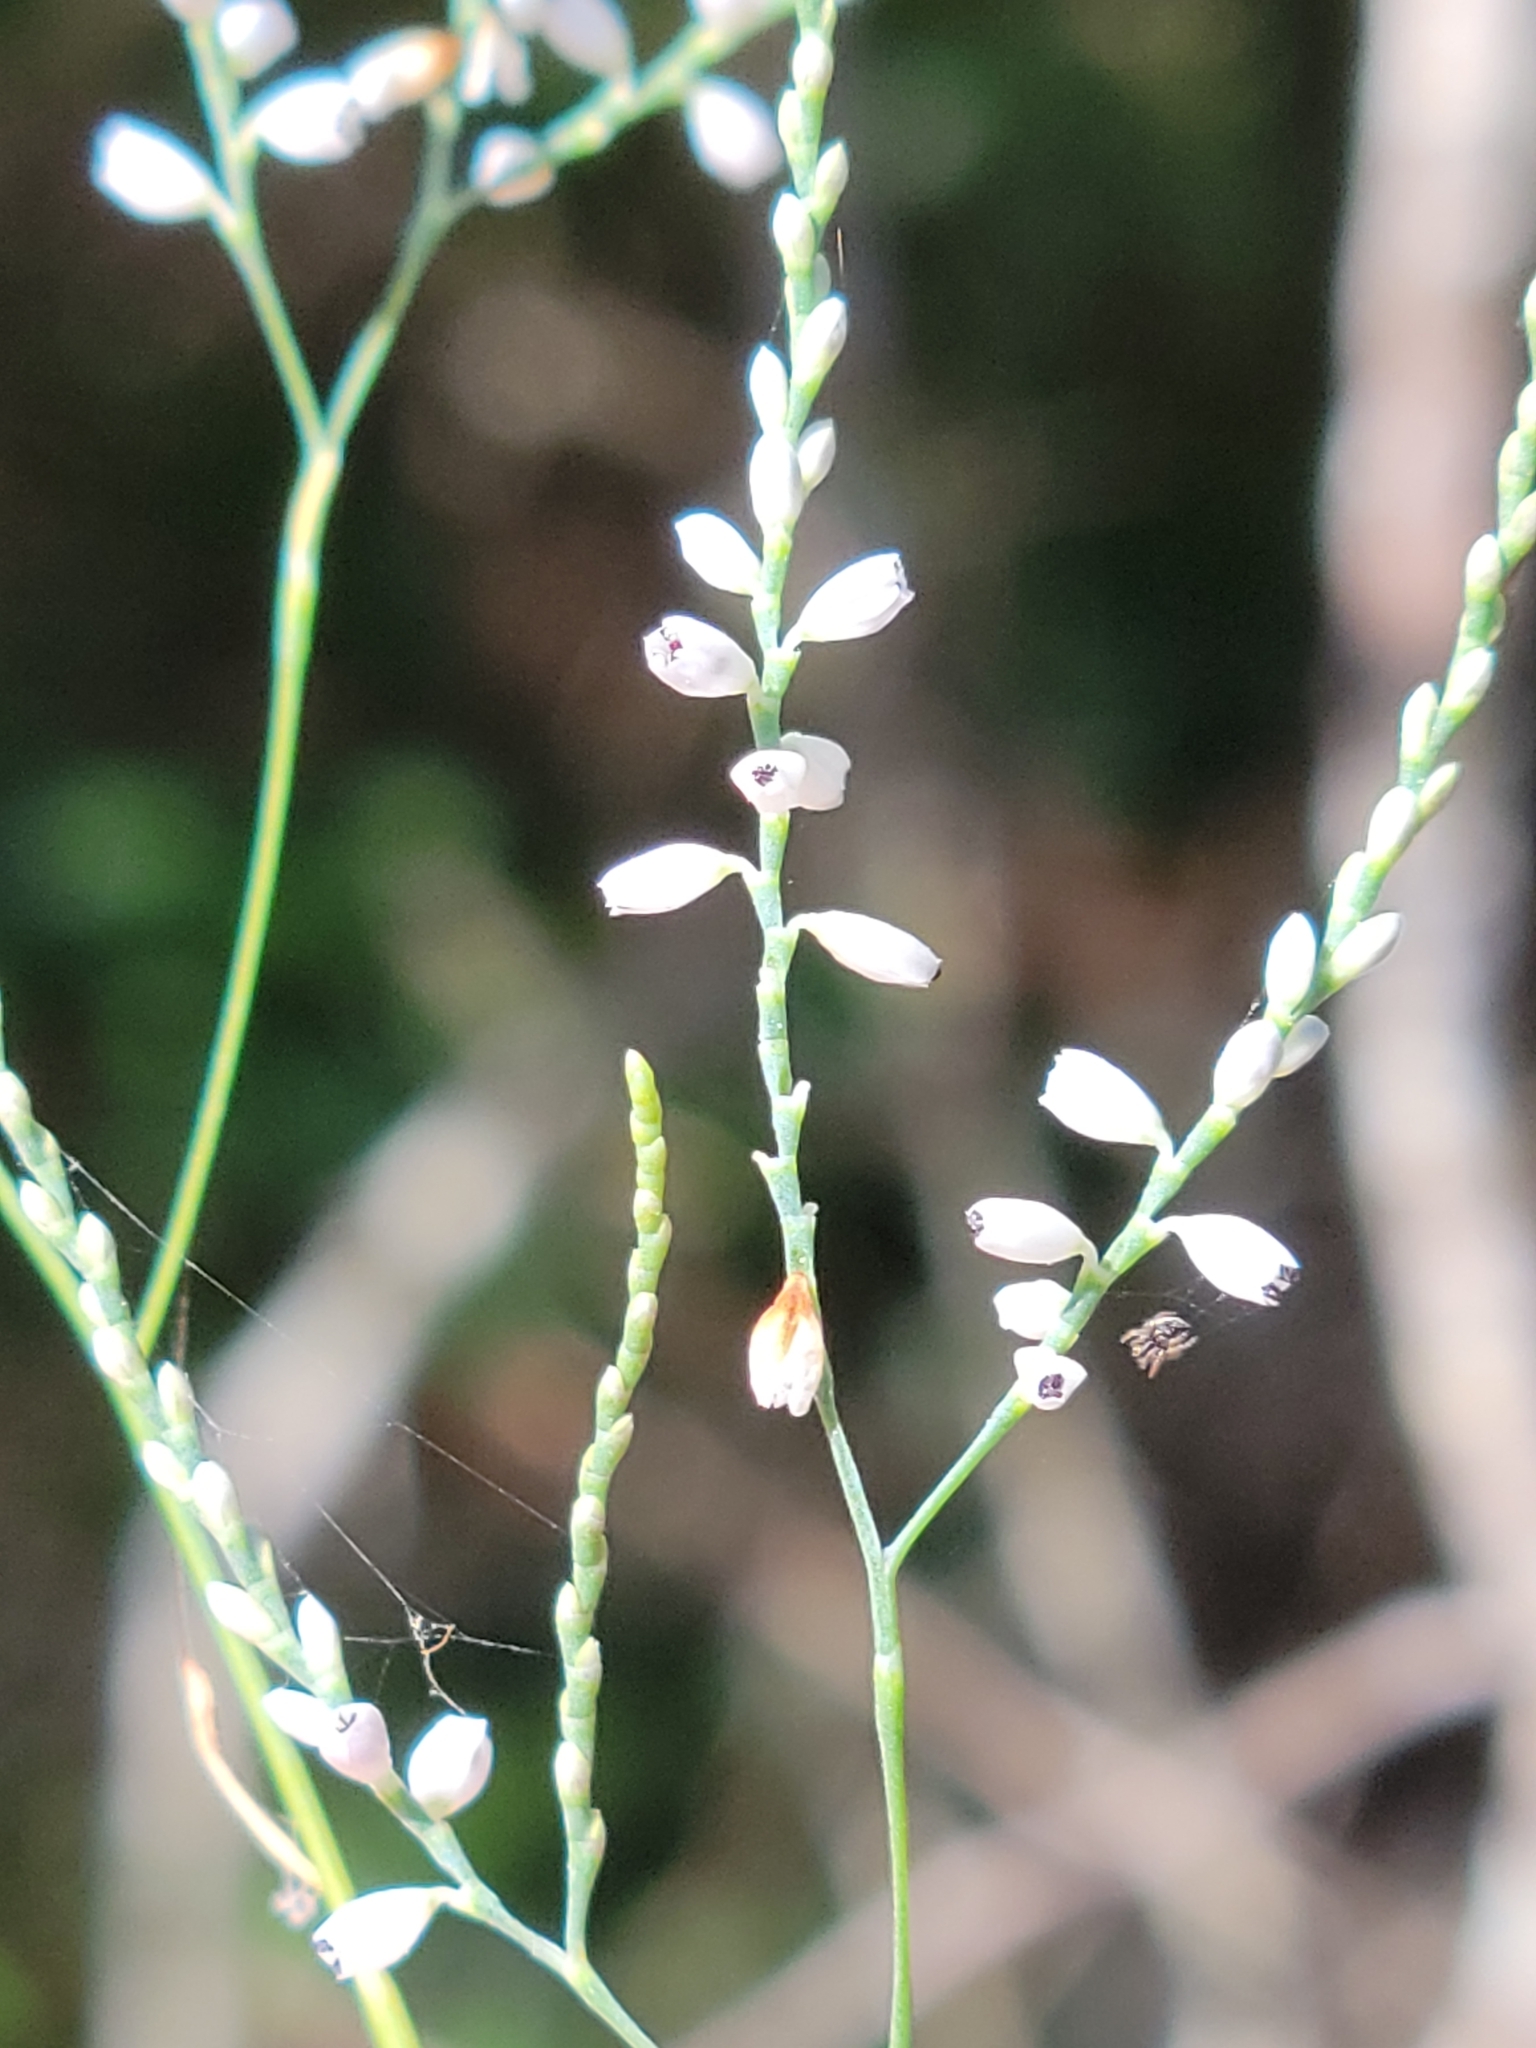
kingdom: Plantae
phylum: Tracheophyta
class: Magnoliopsida
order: Caryophyllales
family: Polygonaceae
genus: Polygonella
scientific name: Polygonella gracilis
